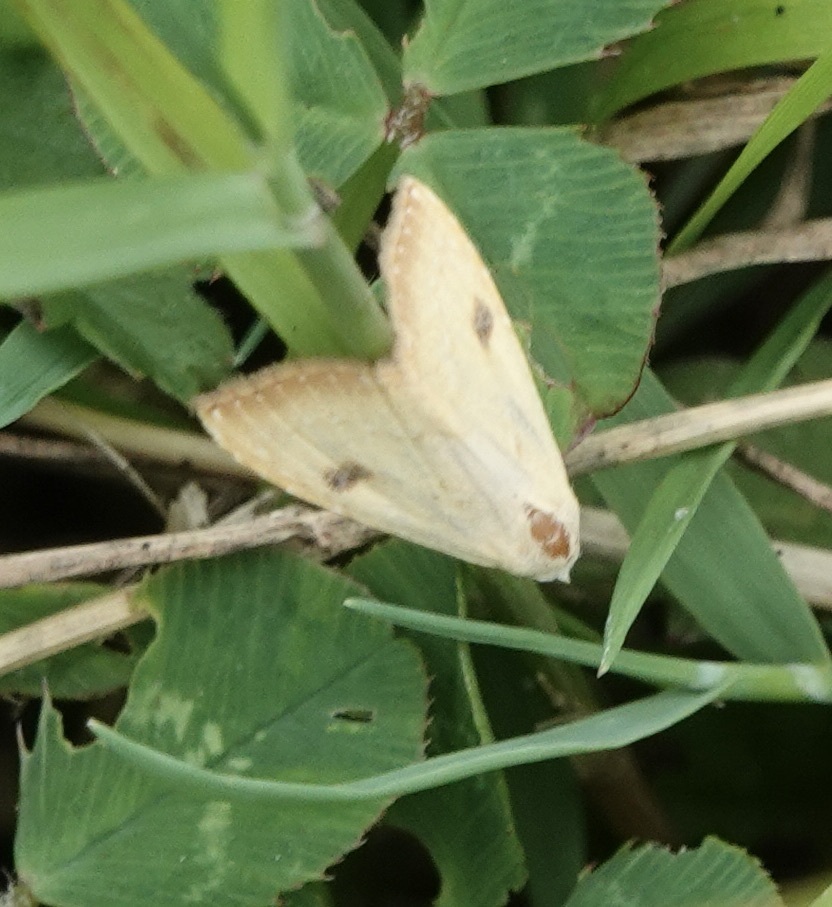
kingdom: Animalia
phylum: Arthropoda
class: Insecta
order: Lepidoptera
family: Erebidae
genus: Rivula
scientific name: Rivula sericealis
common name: Straw dot
